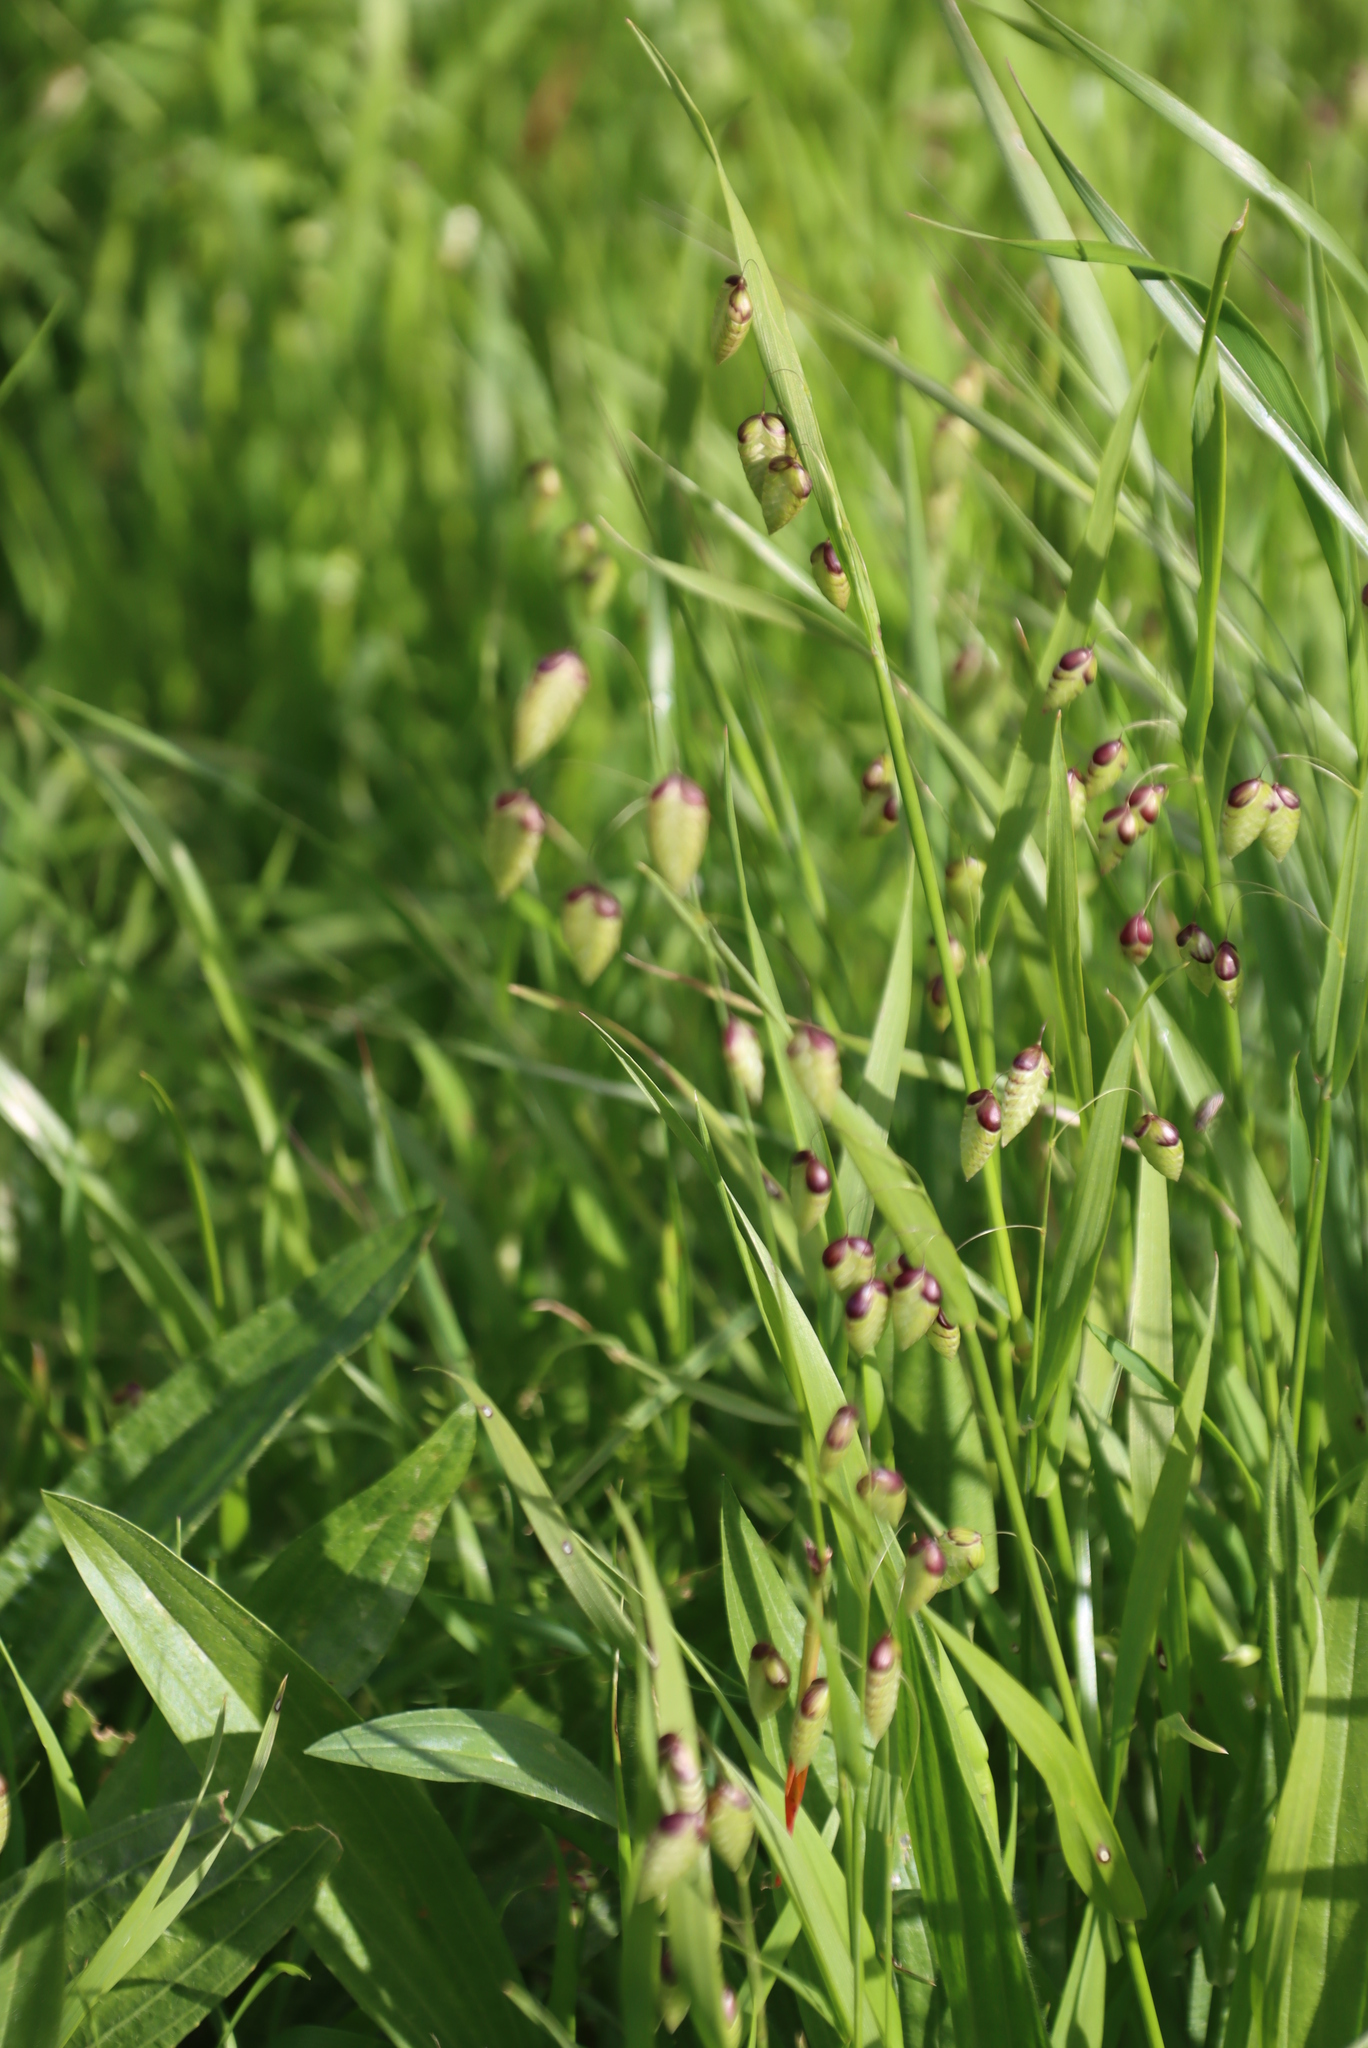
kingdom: Plantae
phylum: Tracheophyta
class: Liliopsida
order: Poales
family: Poaceae
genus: Briza
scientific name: Briza maxima
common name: Big quakinggrass
